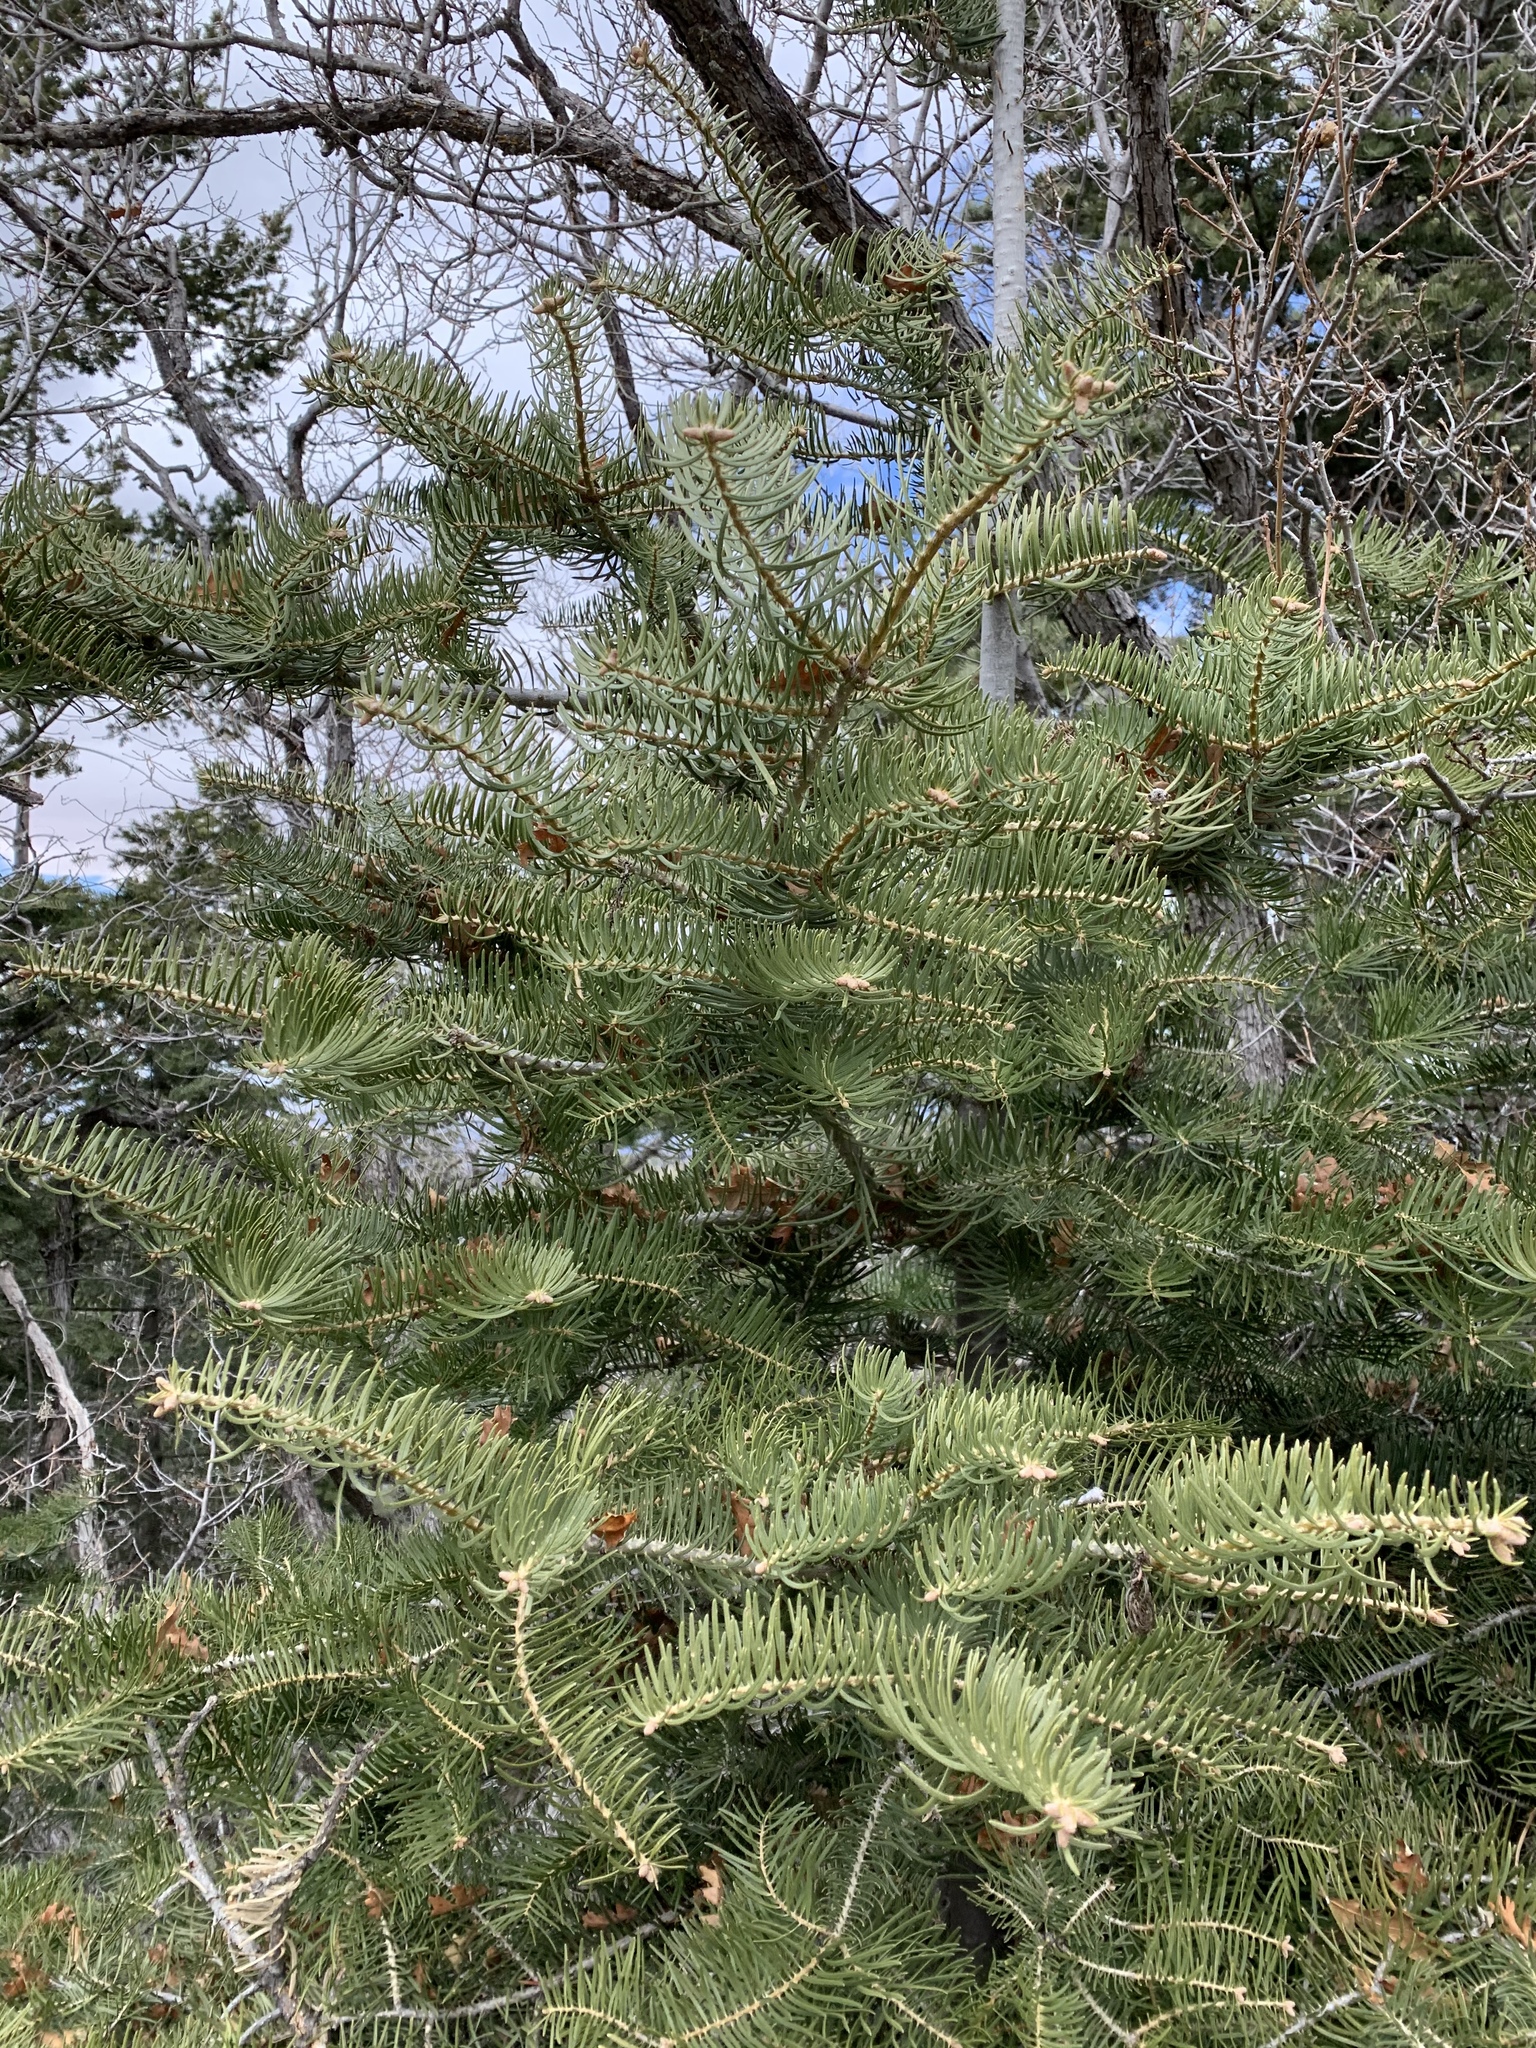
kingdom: Plantae
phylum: Tracheophyta
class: Pinopsida
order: Pinales
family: Pinaceae
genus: Abies
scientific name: Abies concolor
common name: Colorado fir
